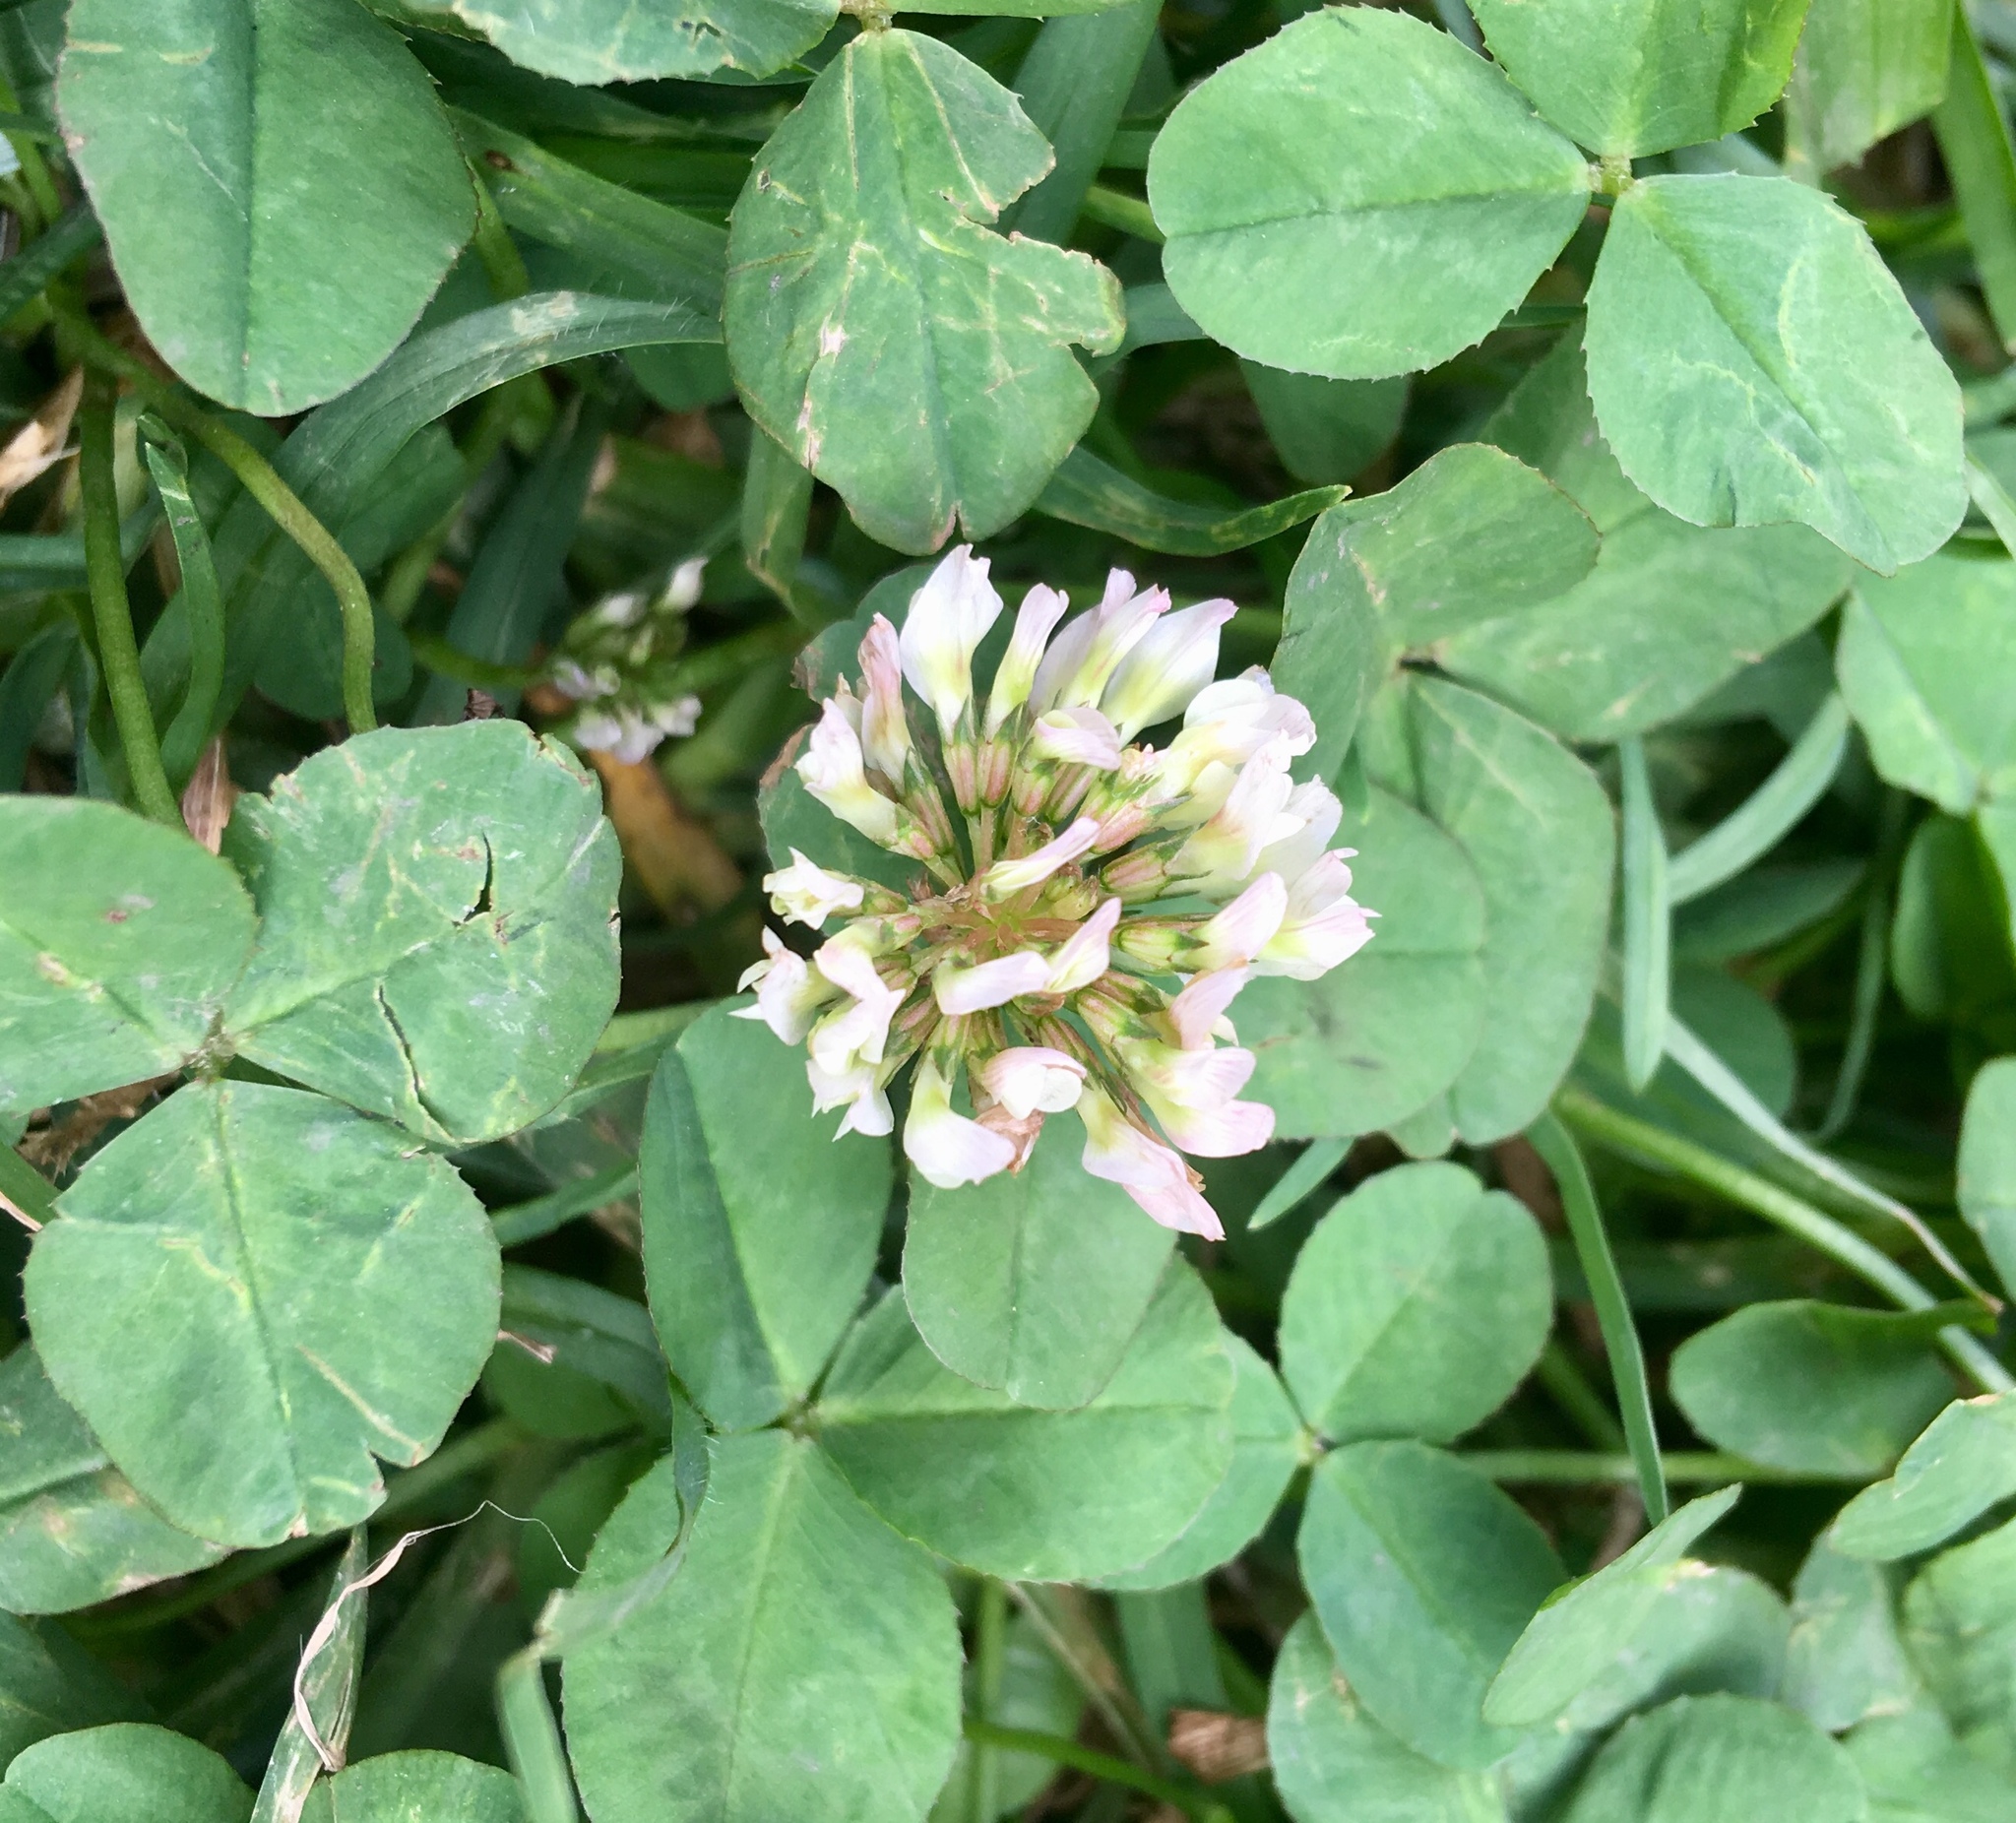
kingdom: Plantae
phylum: Tracheophyta
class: Magnoliopsida
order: Fabales
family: Fabaceae
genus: Trifolium
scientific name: Trifolium repens
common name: White clover
